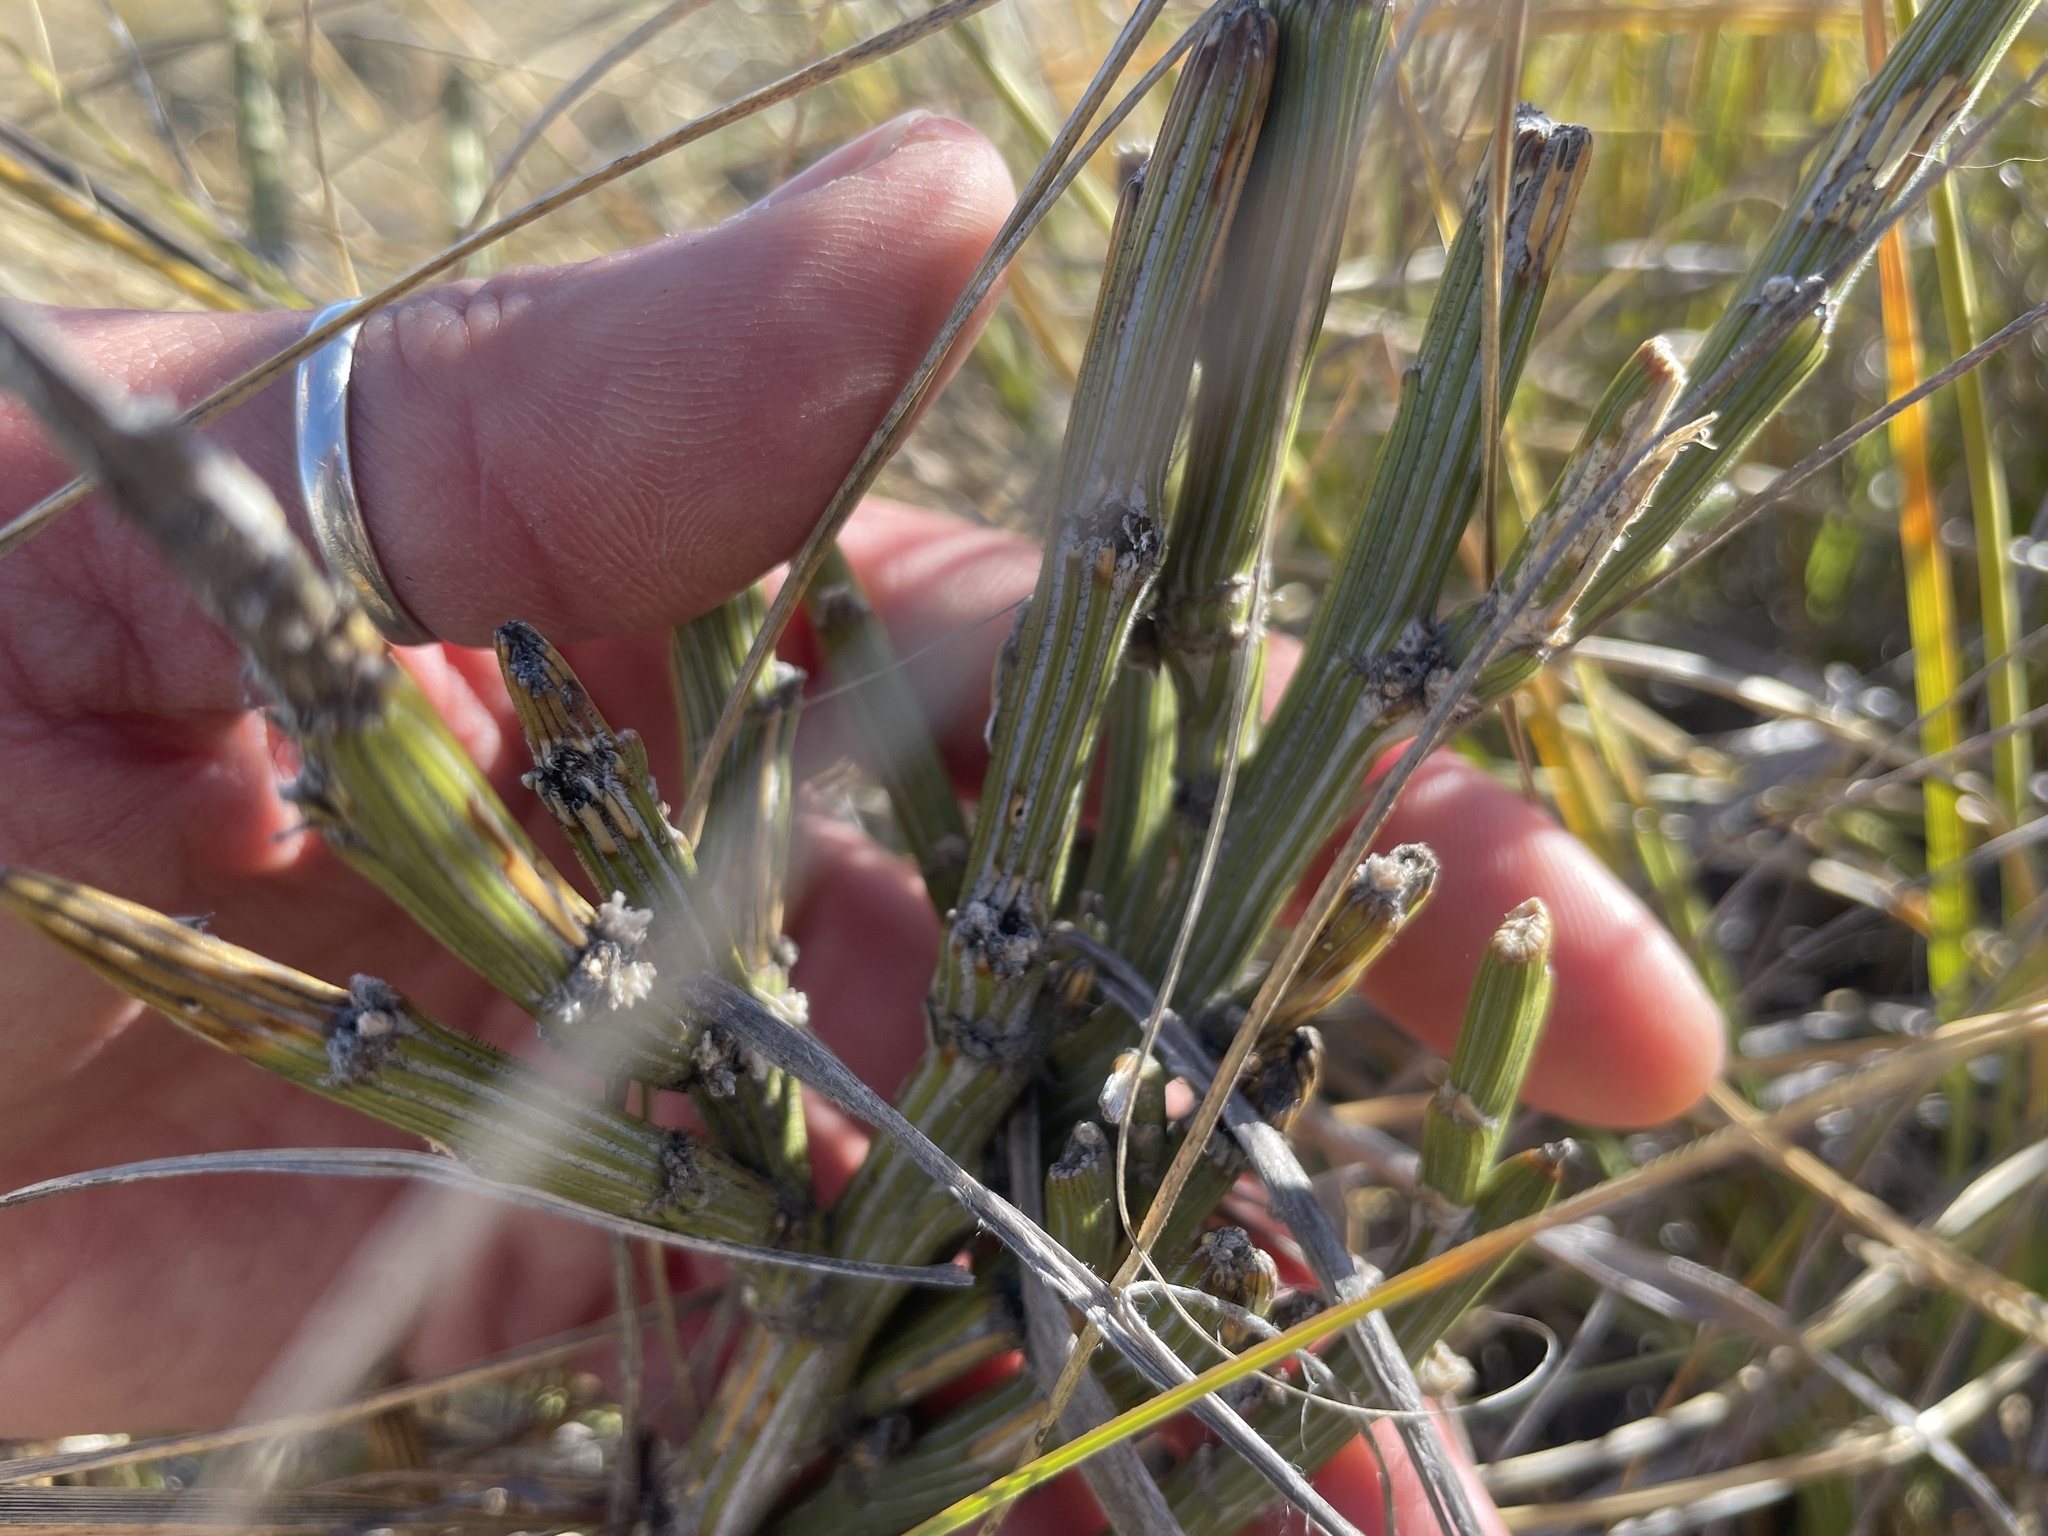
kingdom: Plantae
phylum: Tracheophyta
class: Magnoliopsida
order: Fabales
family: Fabaceae
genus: Carmichaelia
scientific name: Carmichaelia crassicaulis
